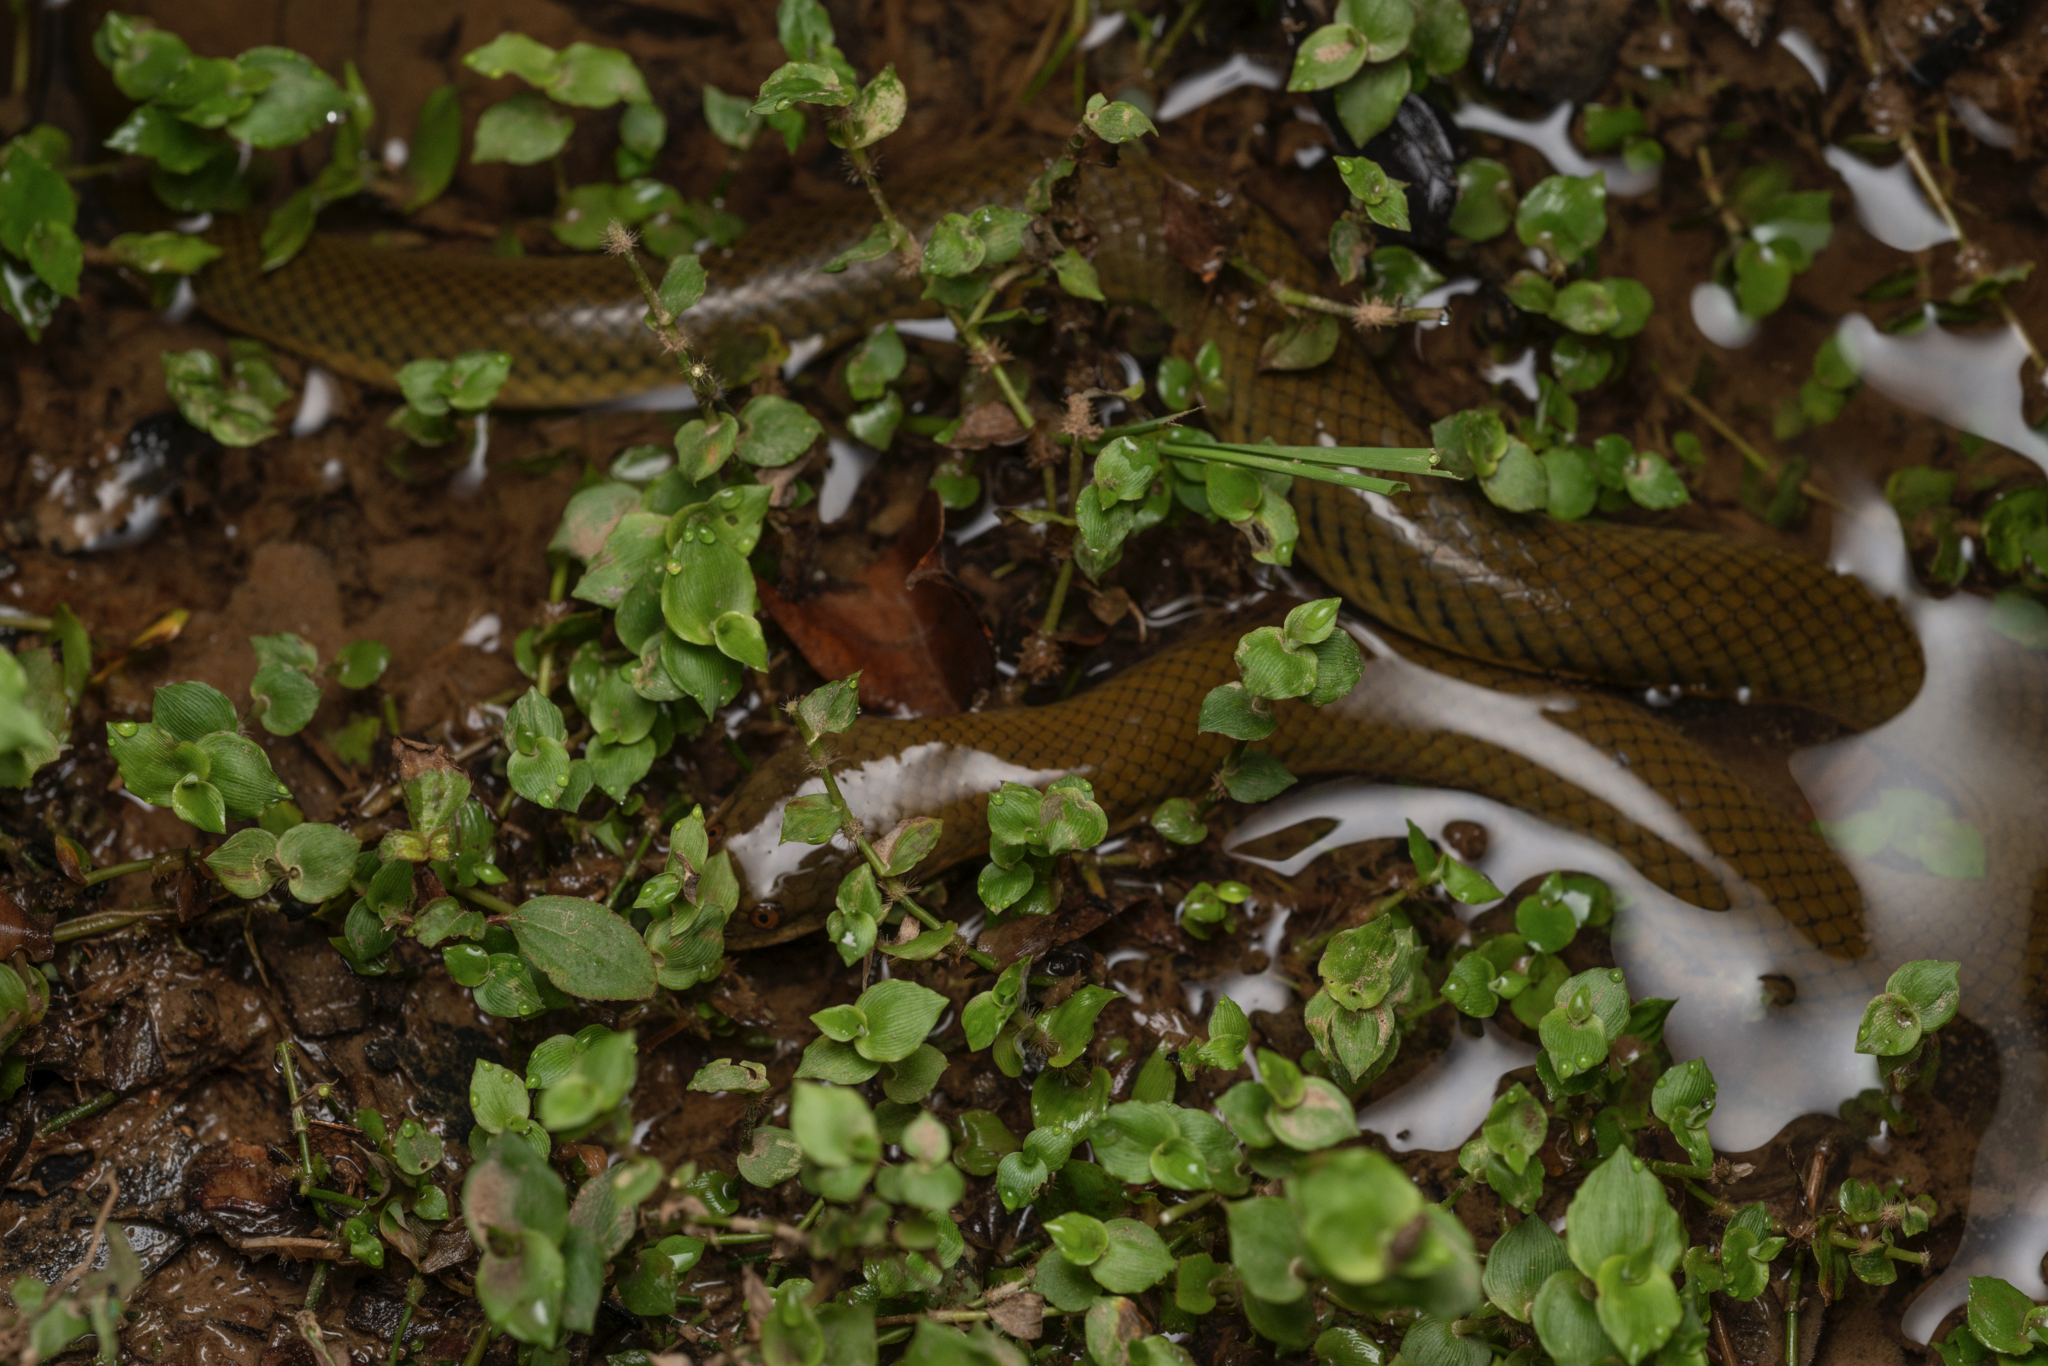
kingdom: Animalia
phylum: Chordata
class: Squamata
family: Homalopsidae
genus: Hypsiscopus
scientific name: Hypsiscopus
